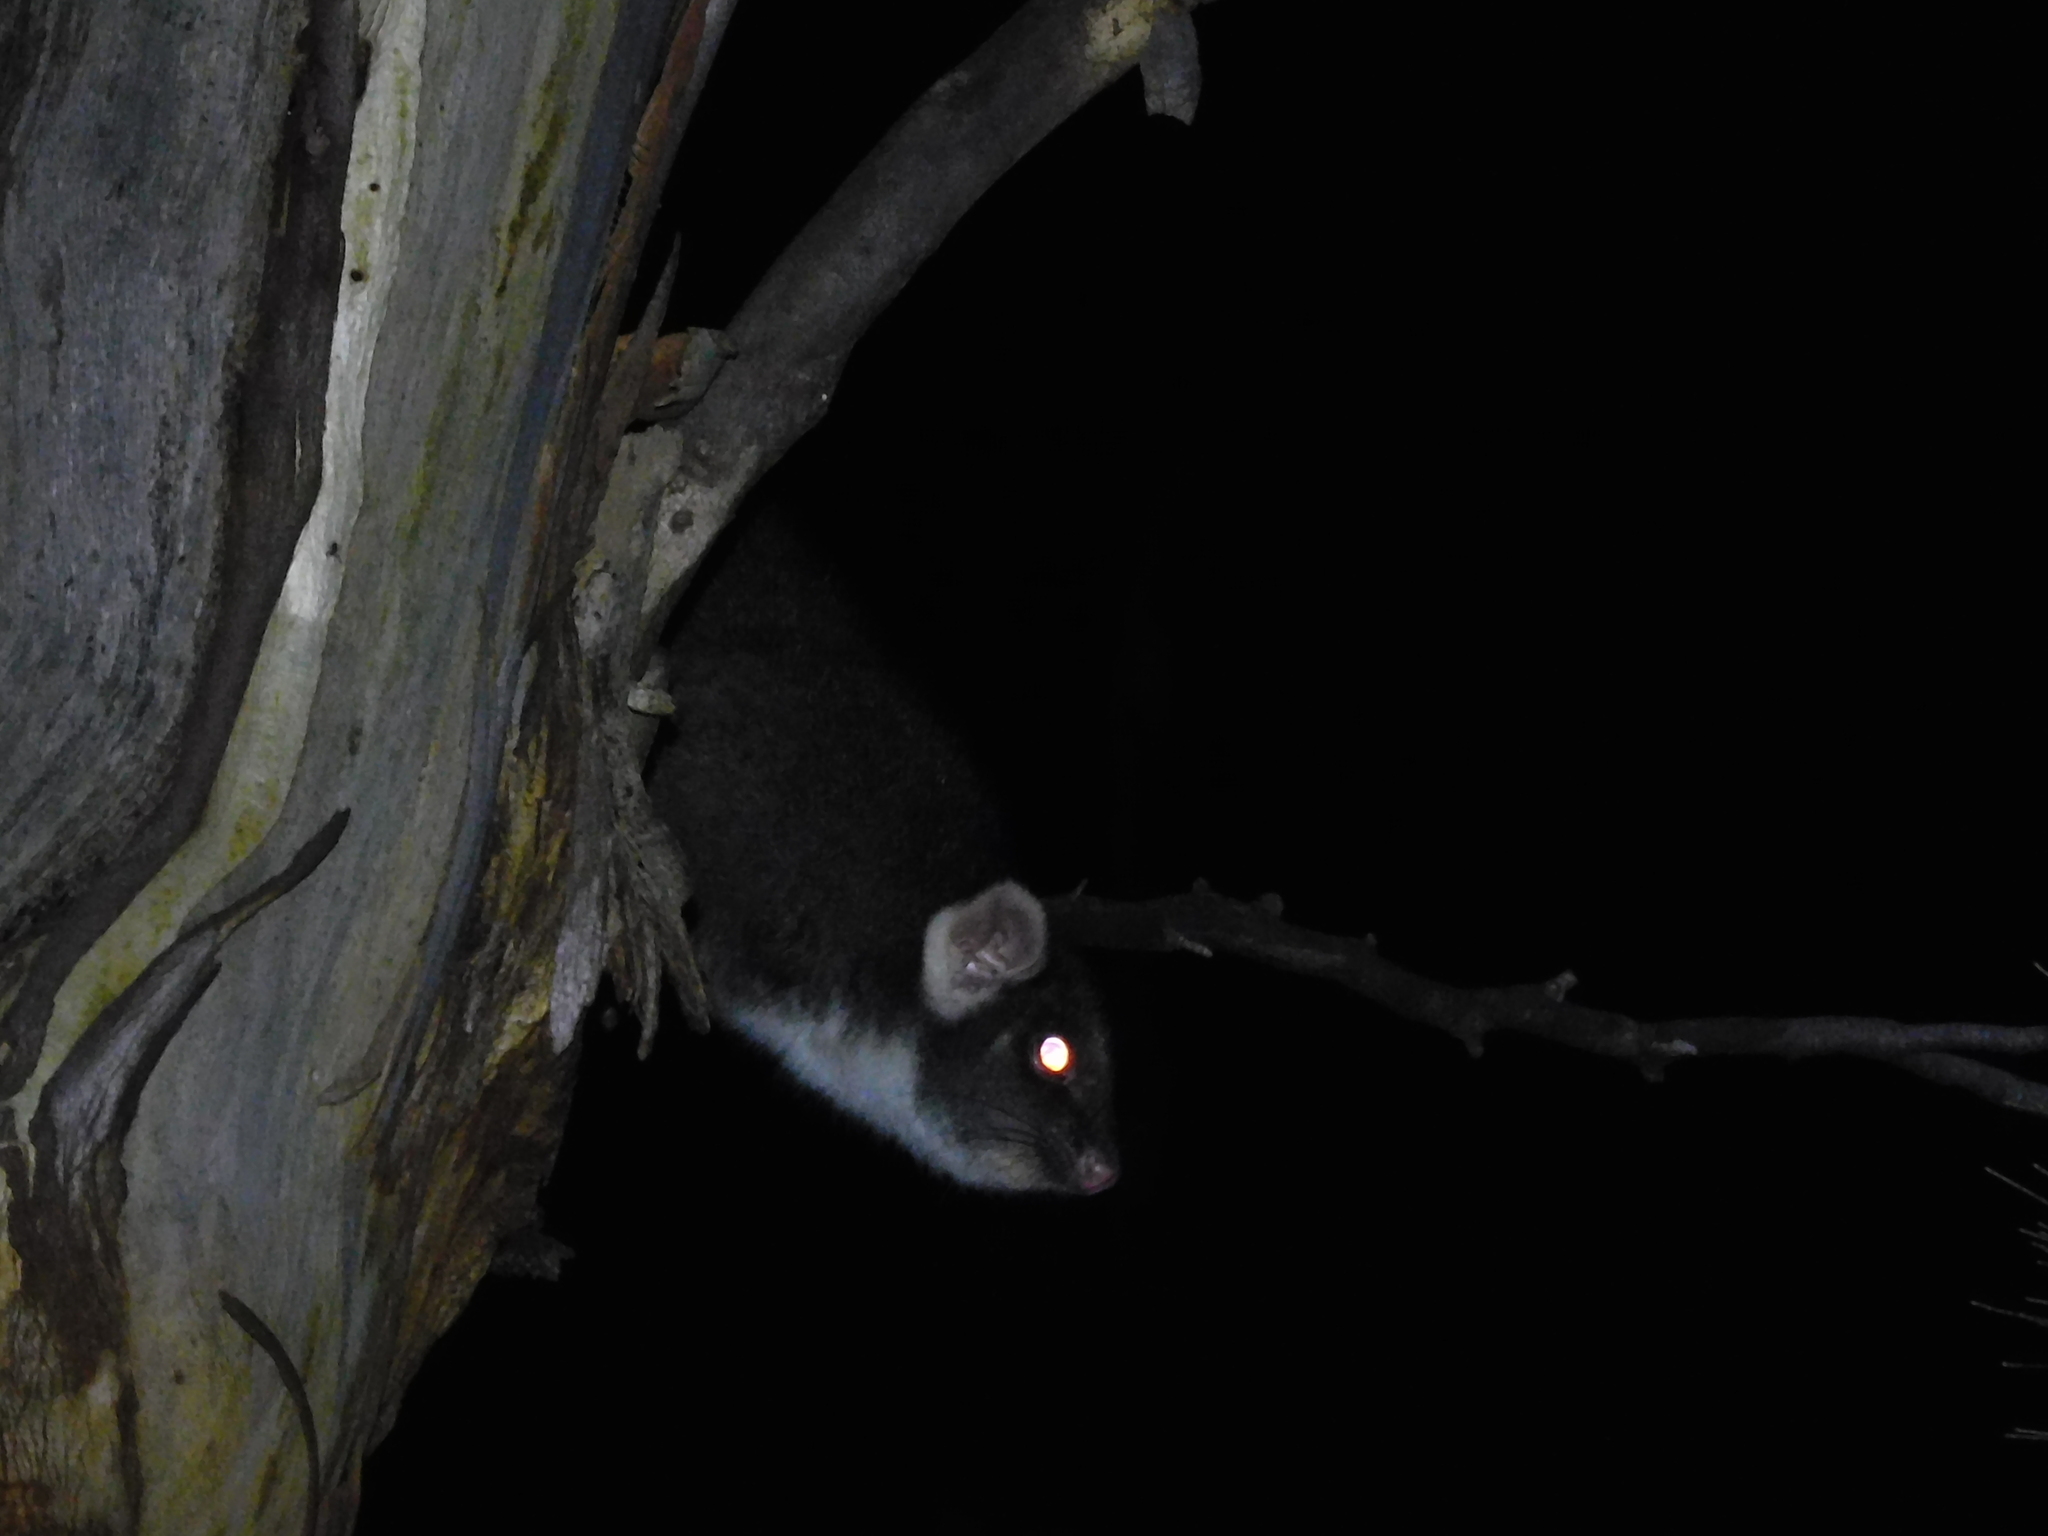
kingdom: Animalia
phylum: Chordata
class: Mammalia
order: Diprotodontia
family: Pseudocheiridae
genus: Pseudocheirus
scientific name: Pseudocheirus peregrinus
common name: Common ringtail possum
